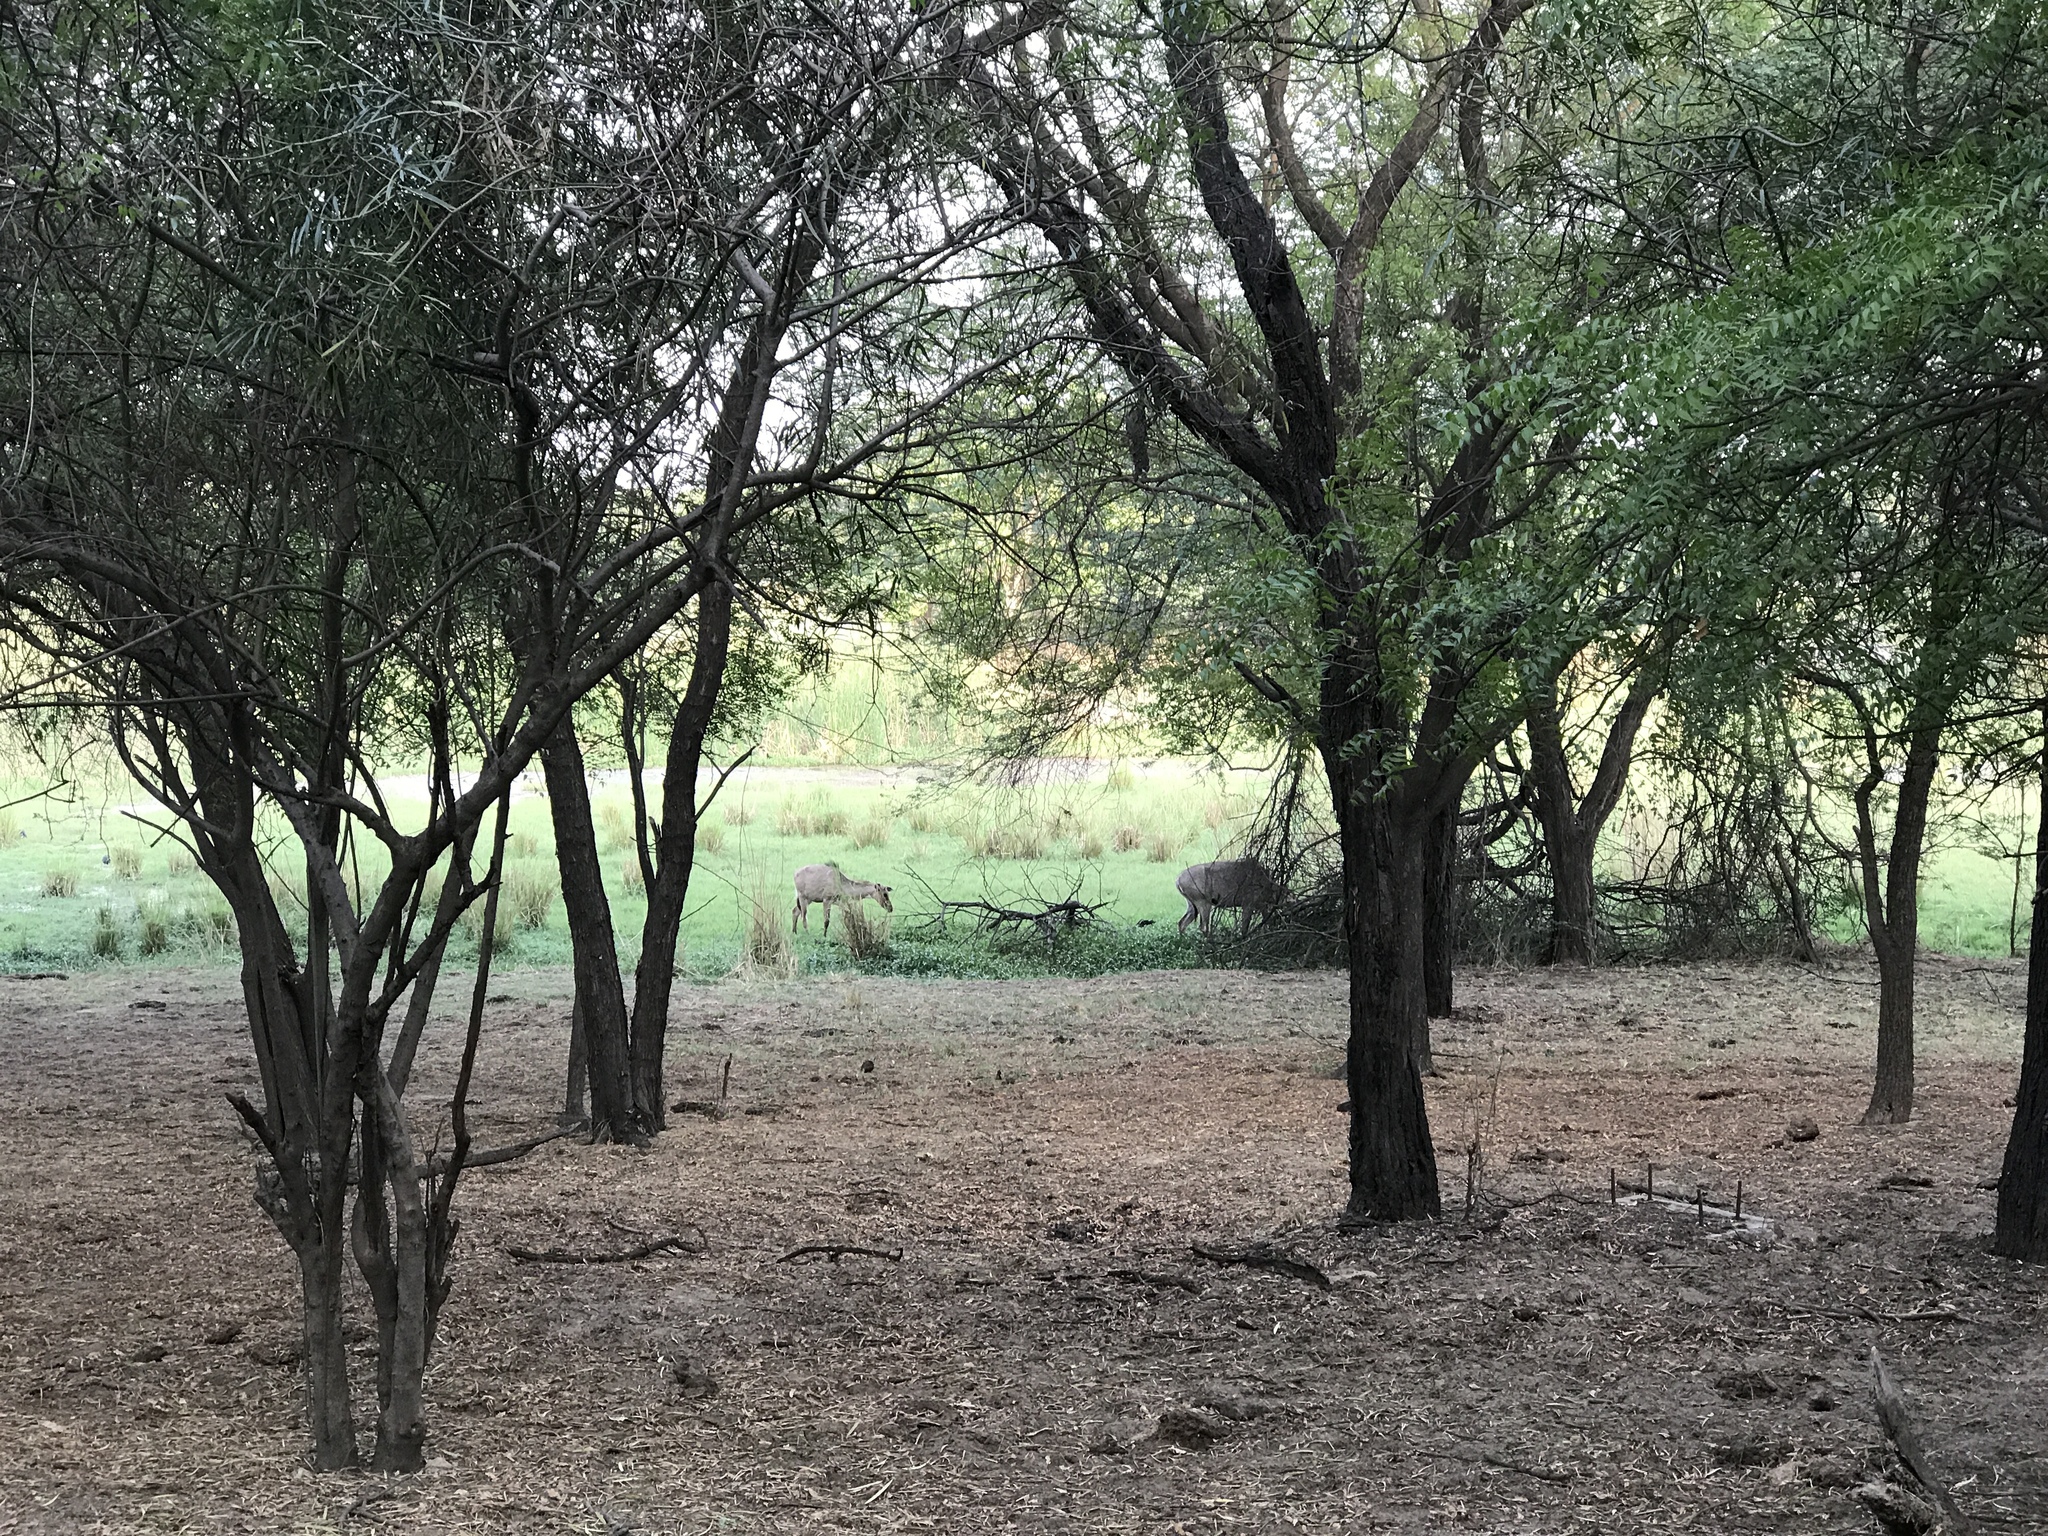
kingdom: Animalia
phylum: Chordata
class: Mammalia
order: Artiodactyla
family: Bovidae
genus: Boselaphus
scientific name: Boselaphus tragocamelus
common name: Nilgai
